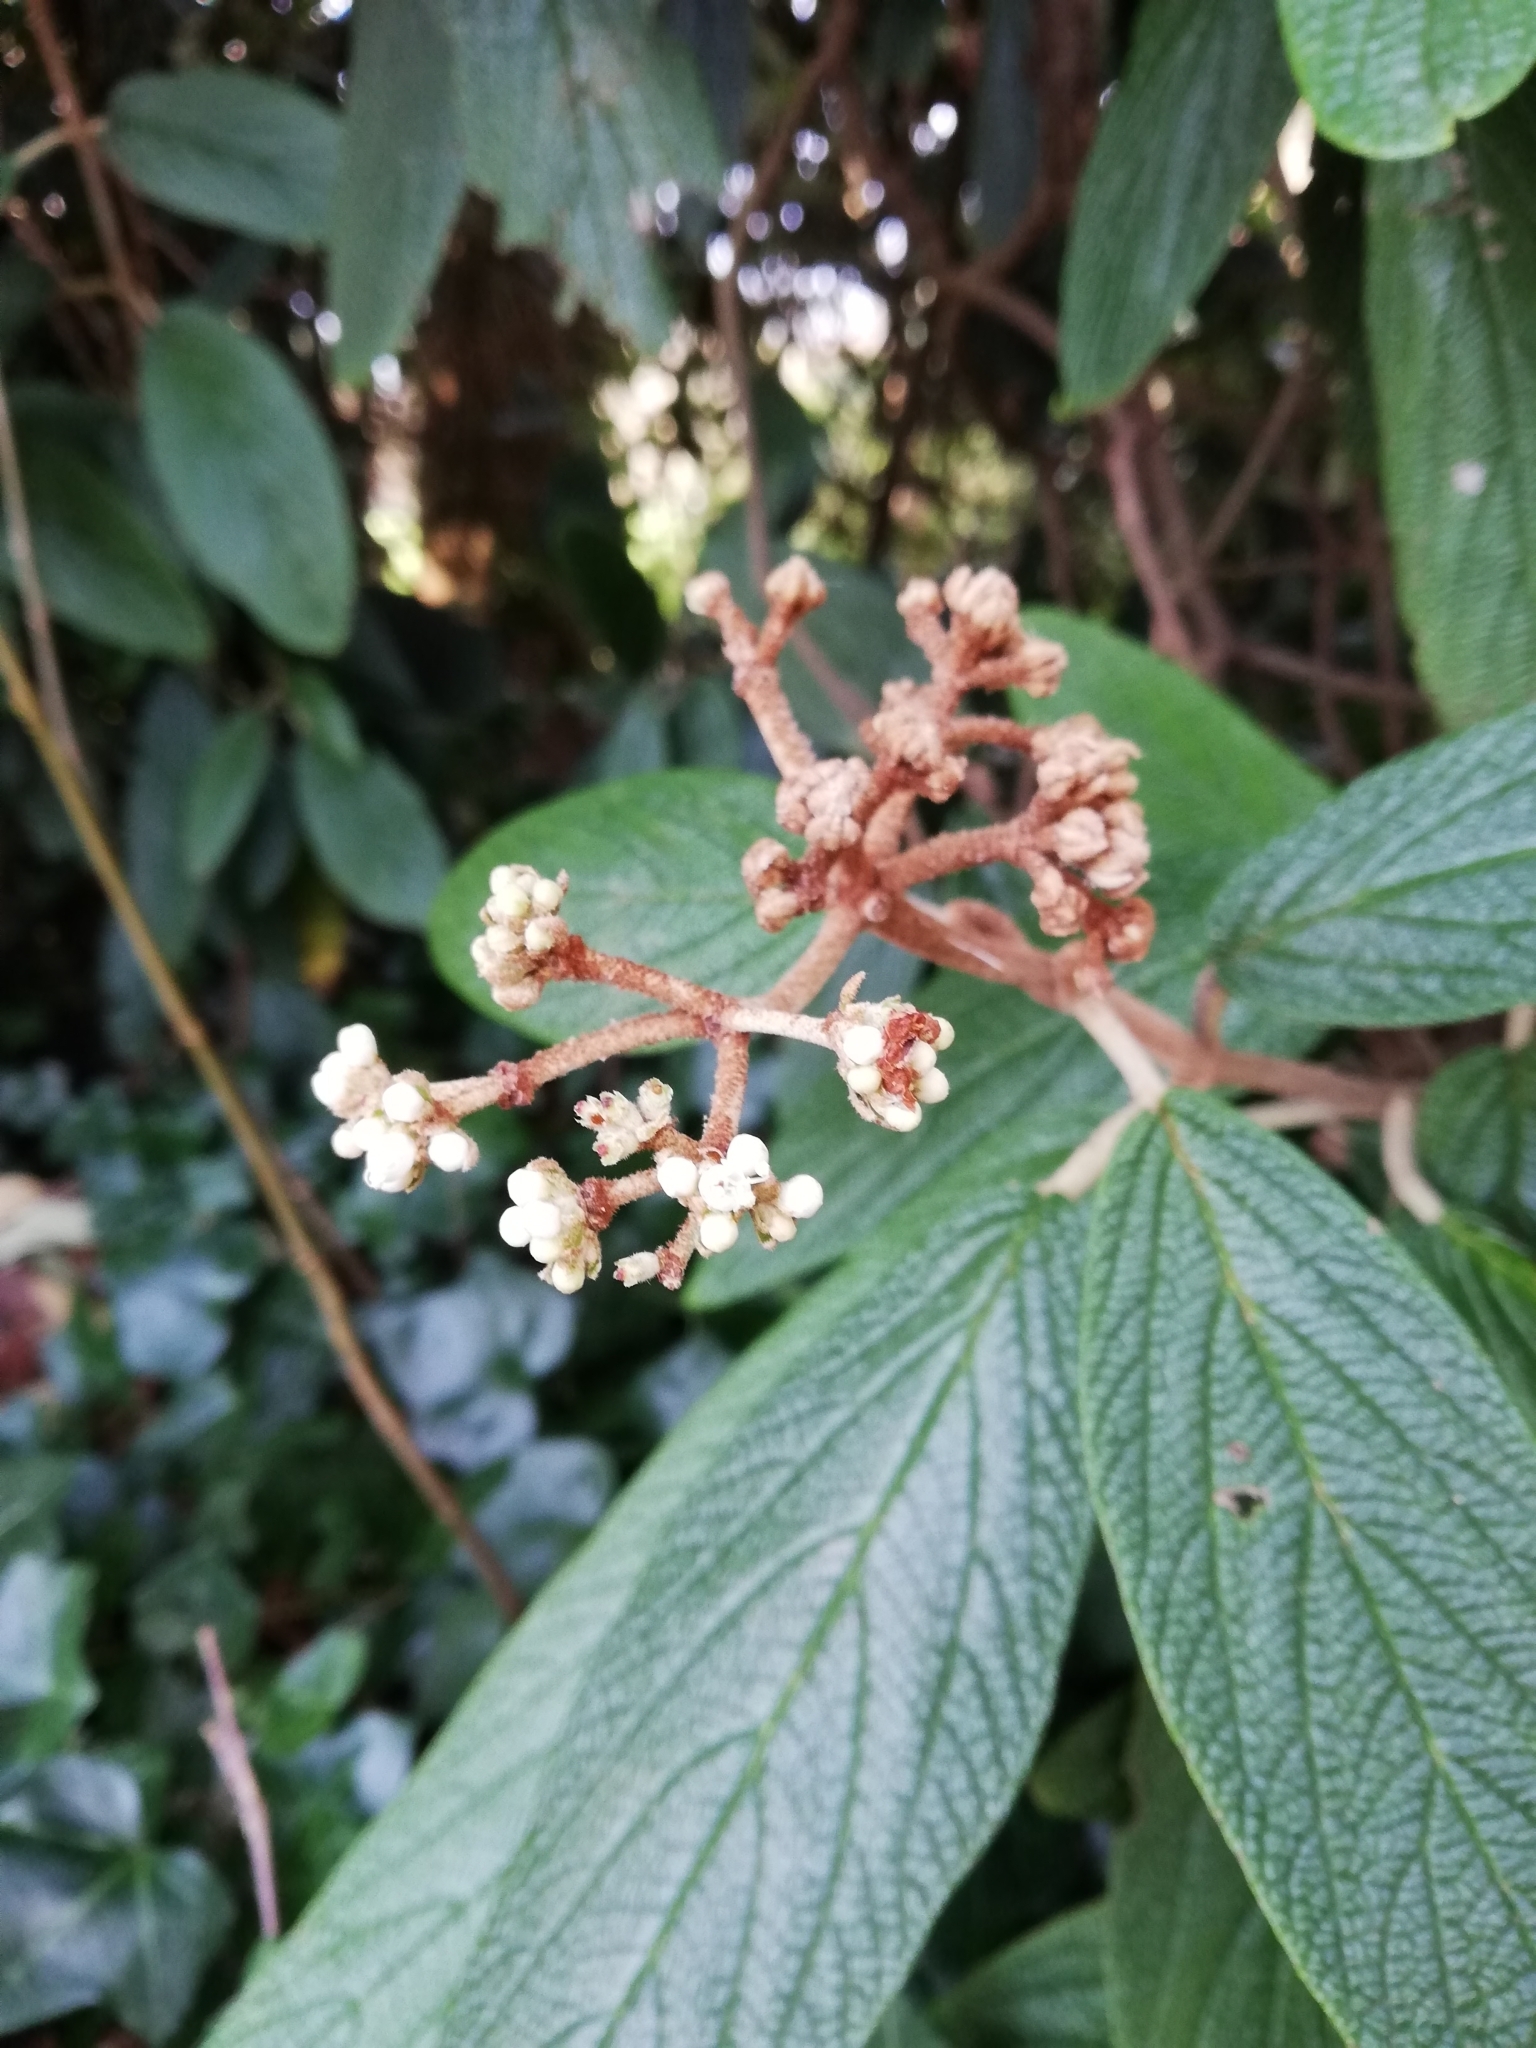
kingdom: Plantae
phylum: Tracheophyta
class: Magnoliopsida
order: Dipsacales
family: Viburnaceae
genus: Viburnum
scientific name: Viburnum rhytidophyllum
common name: Wrinkled viburnum
